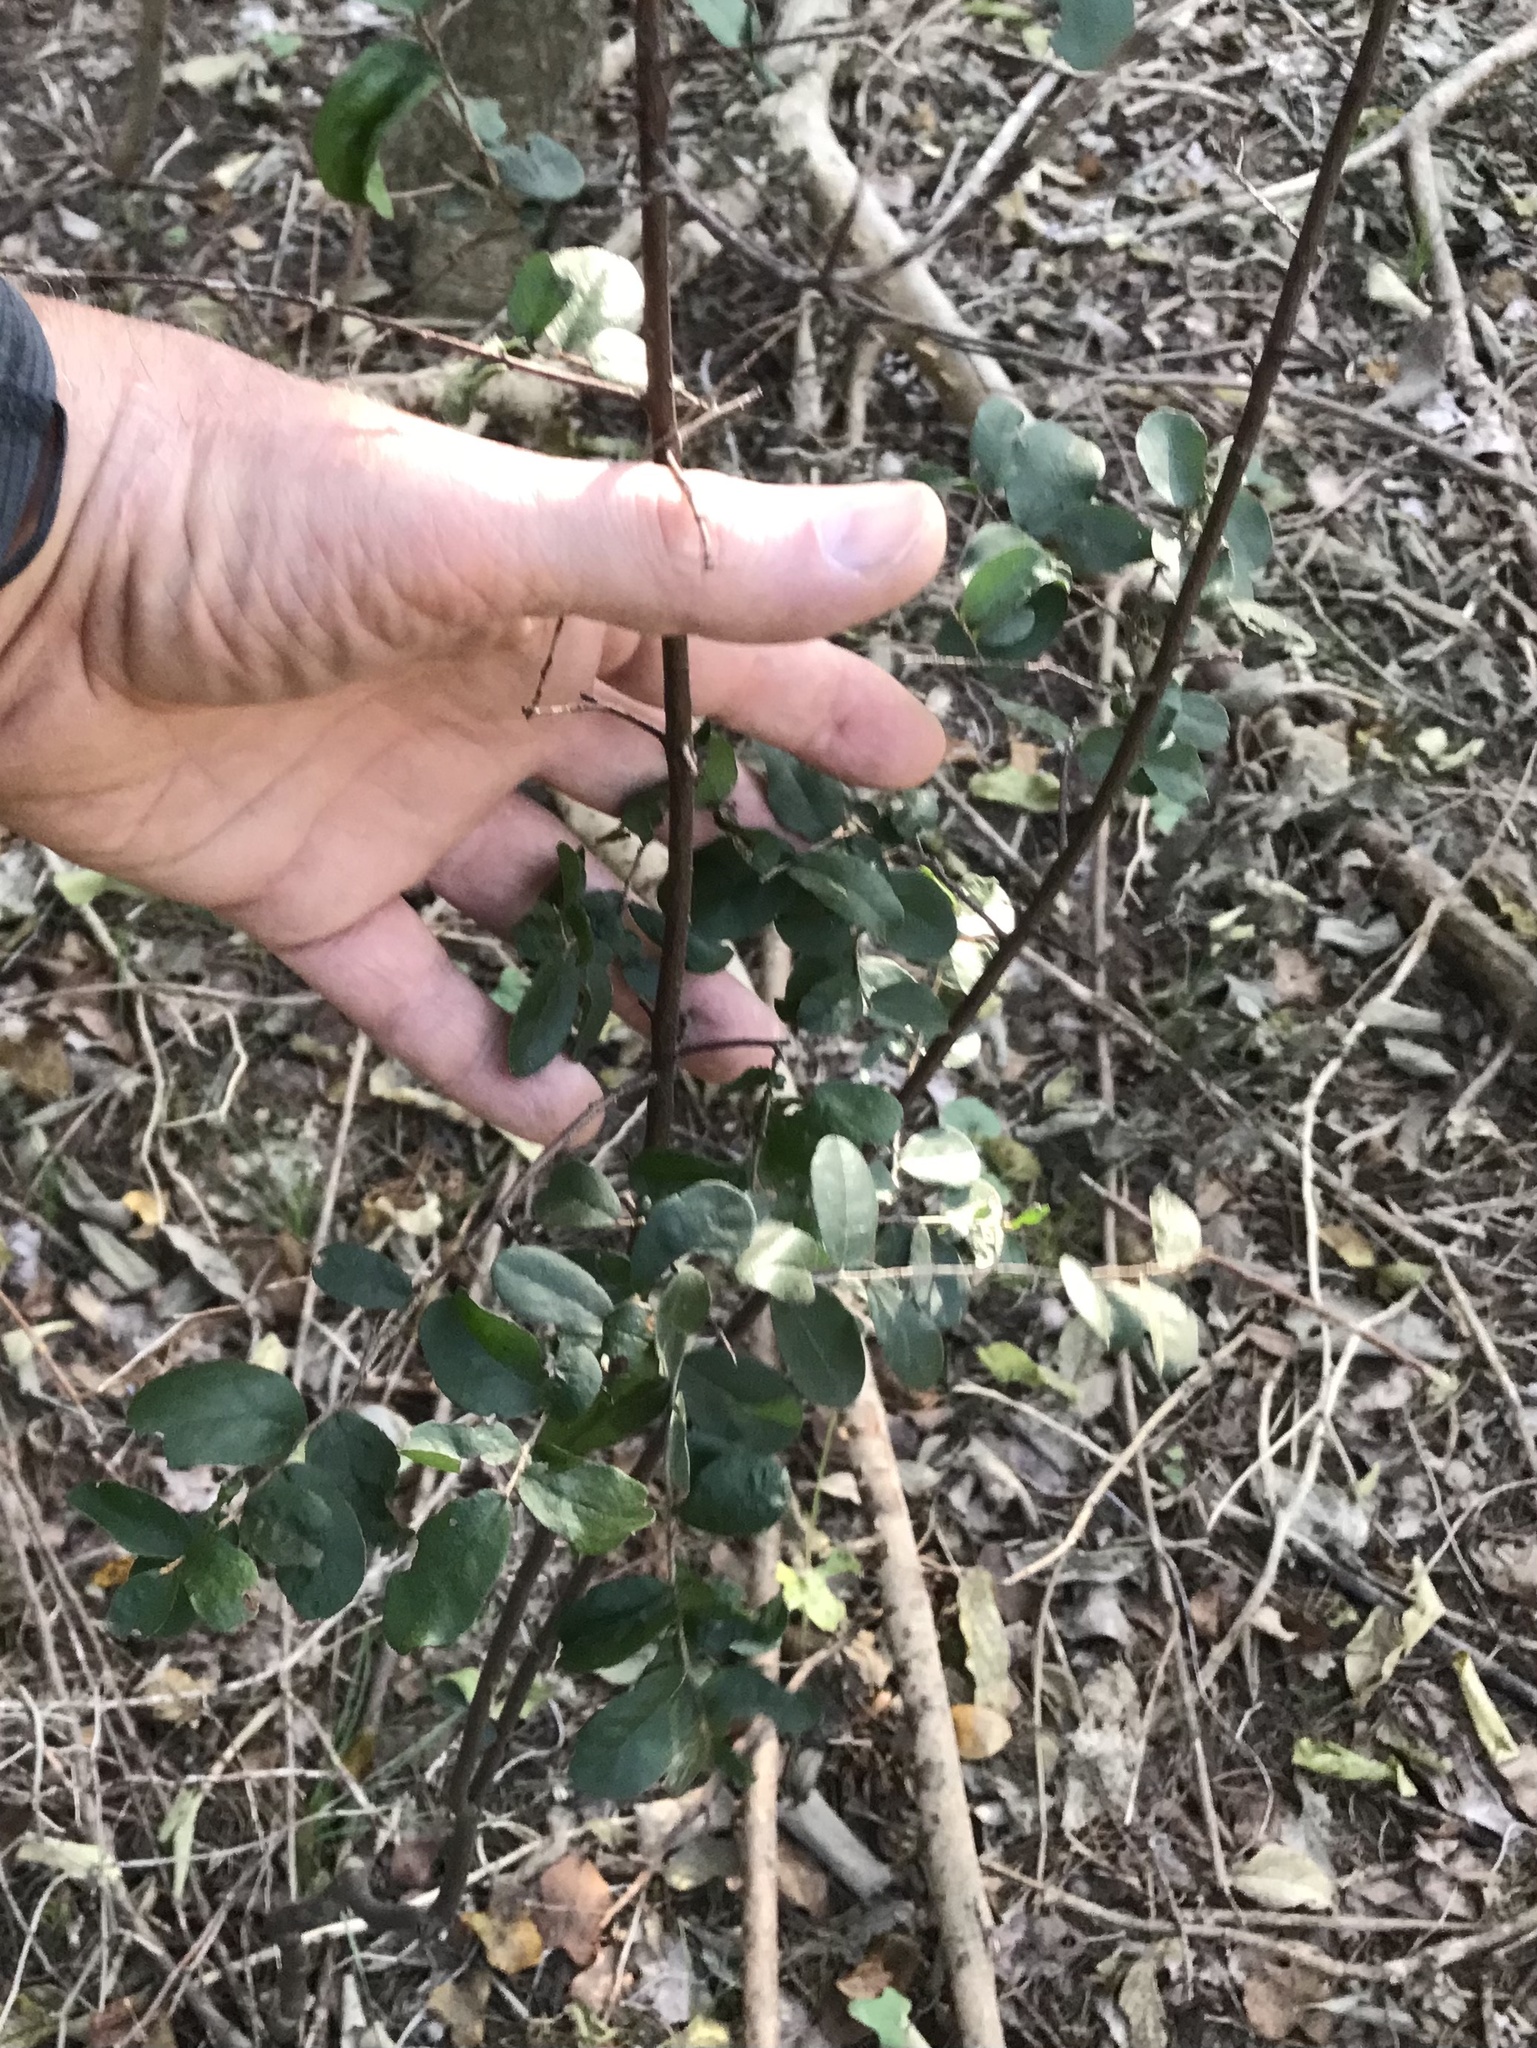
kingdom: Plantae
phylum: Tracheophyta
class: Magnoliopsida
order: Ericales
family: Ebenaceae
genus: Diospyros
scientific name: Diospyros texana
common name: Texas persimmon
